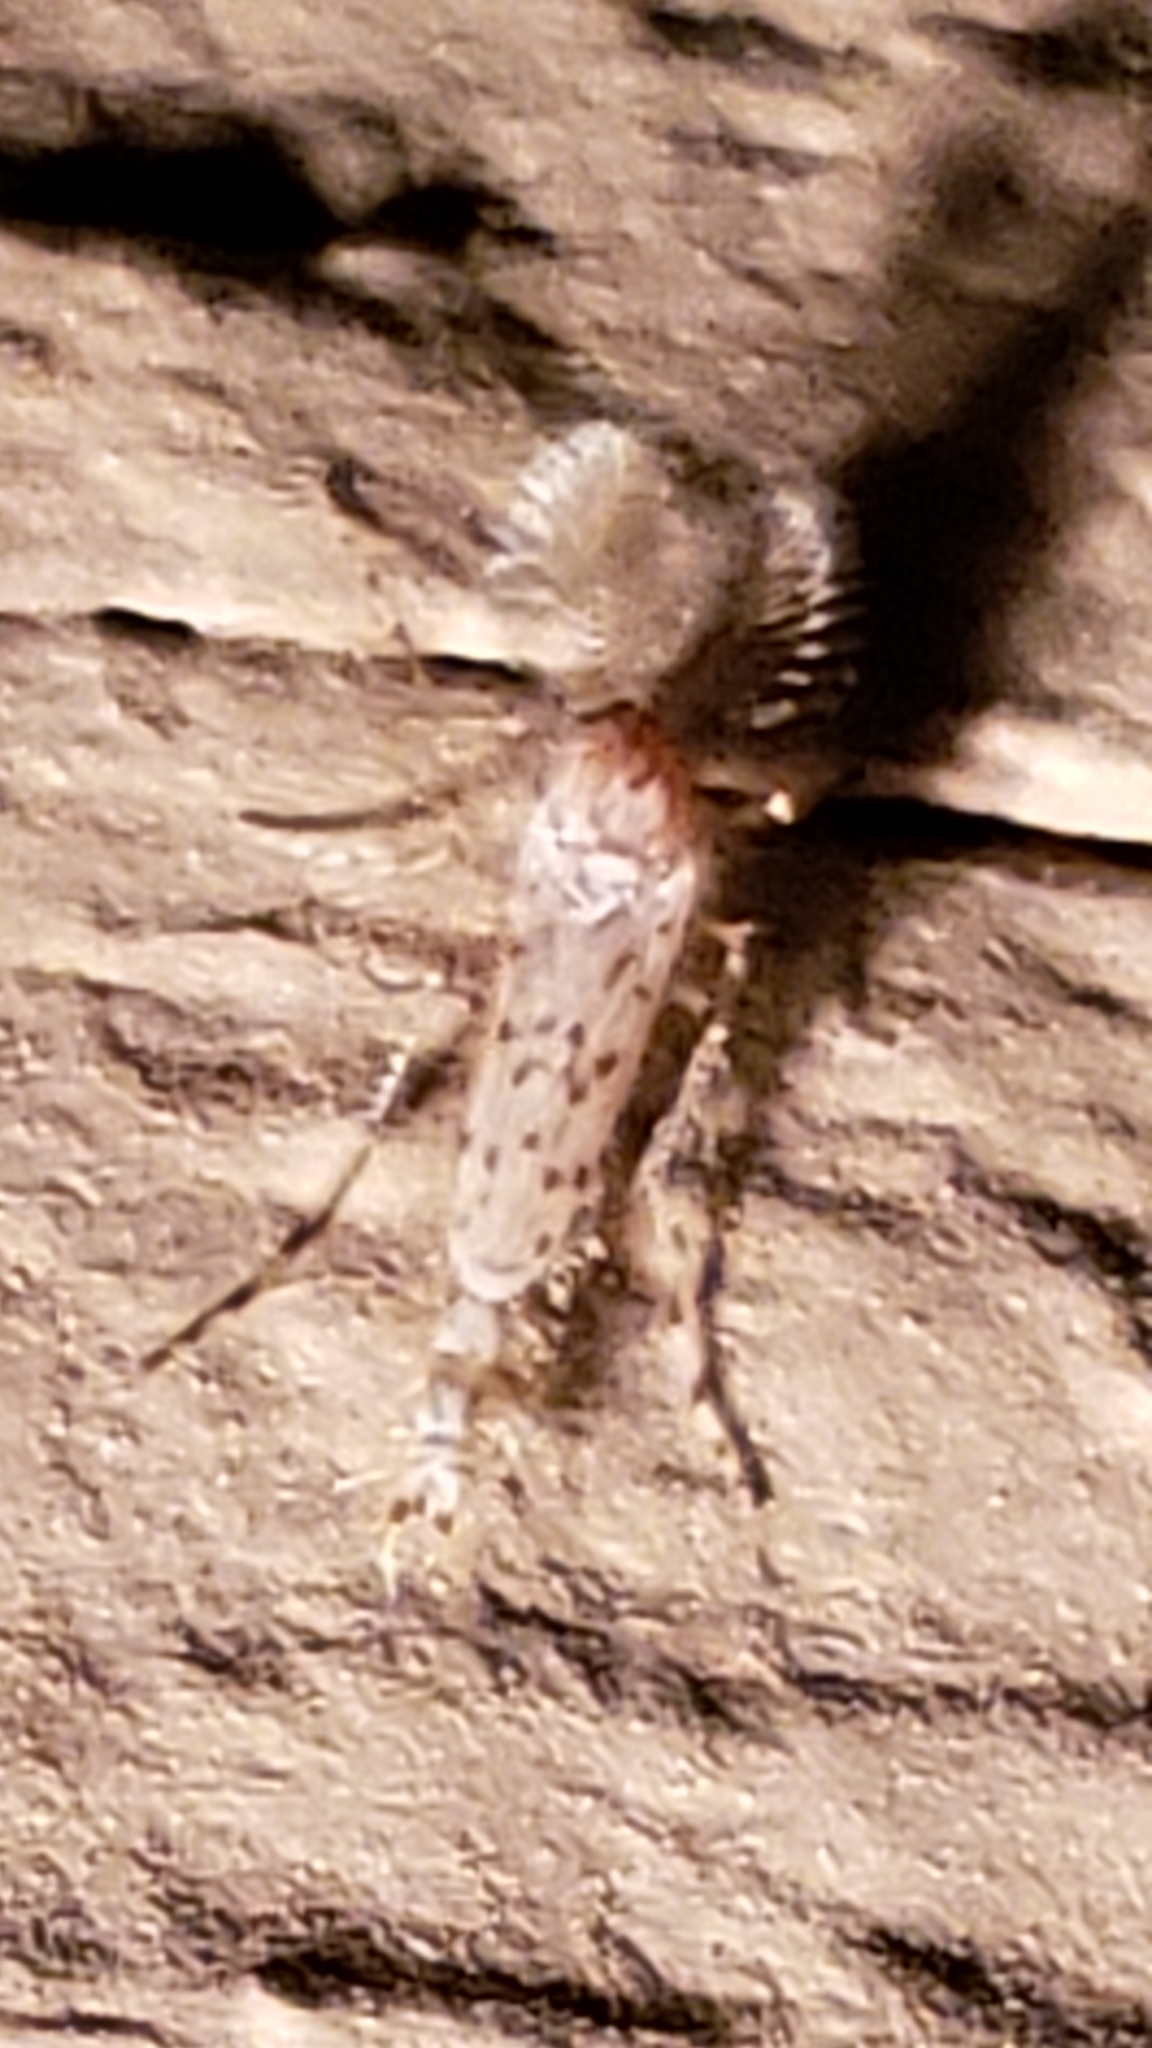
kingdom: Animalia
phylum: Arthropoda
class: Insecta
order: Diptera
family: Chaoboridae
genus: Chaoborus
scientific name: Chaoborus punctipennis
